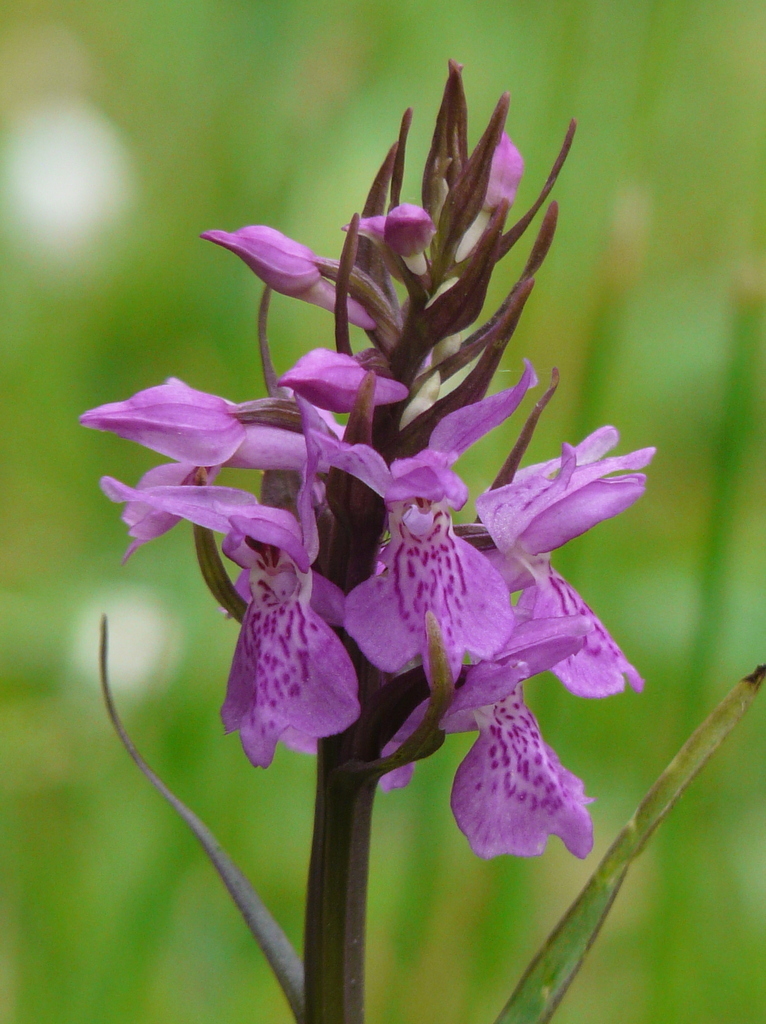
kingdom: Plantae
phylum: Tracheophyta
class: Liliopsida
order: Asparagales
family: Orchidaceae
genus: Dactylorhiza
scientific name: Dactylorhiza majalis
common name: Marsh orchid
